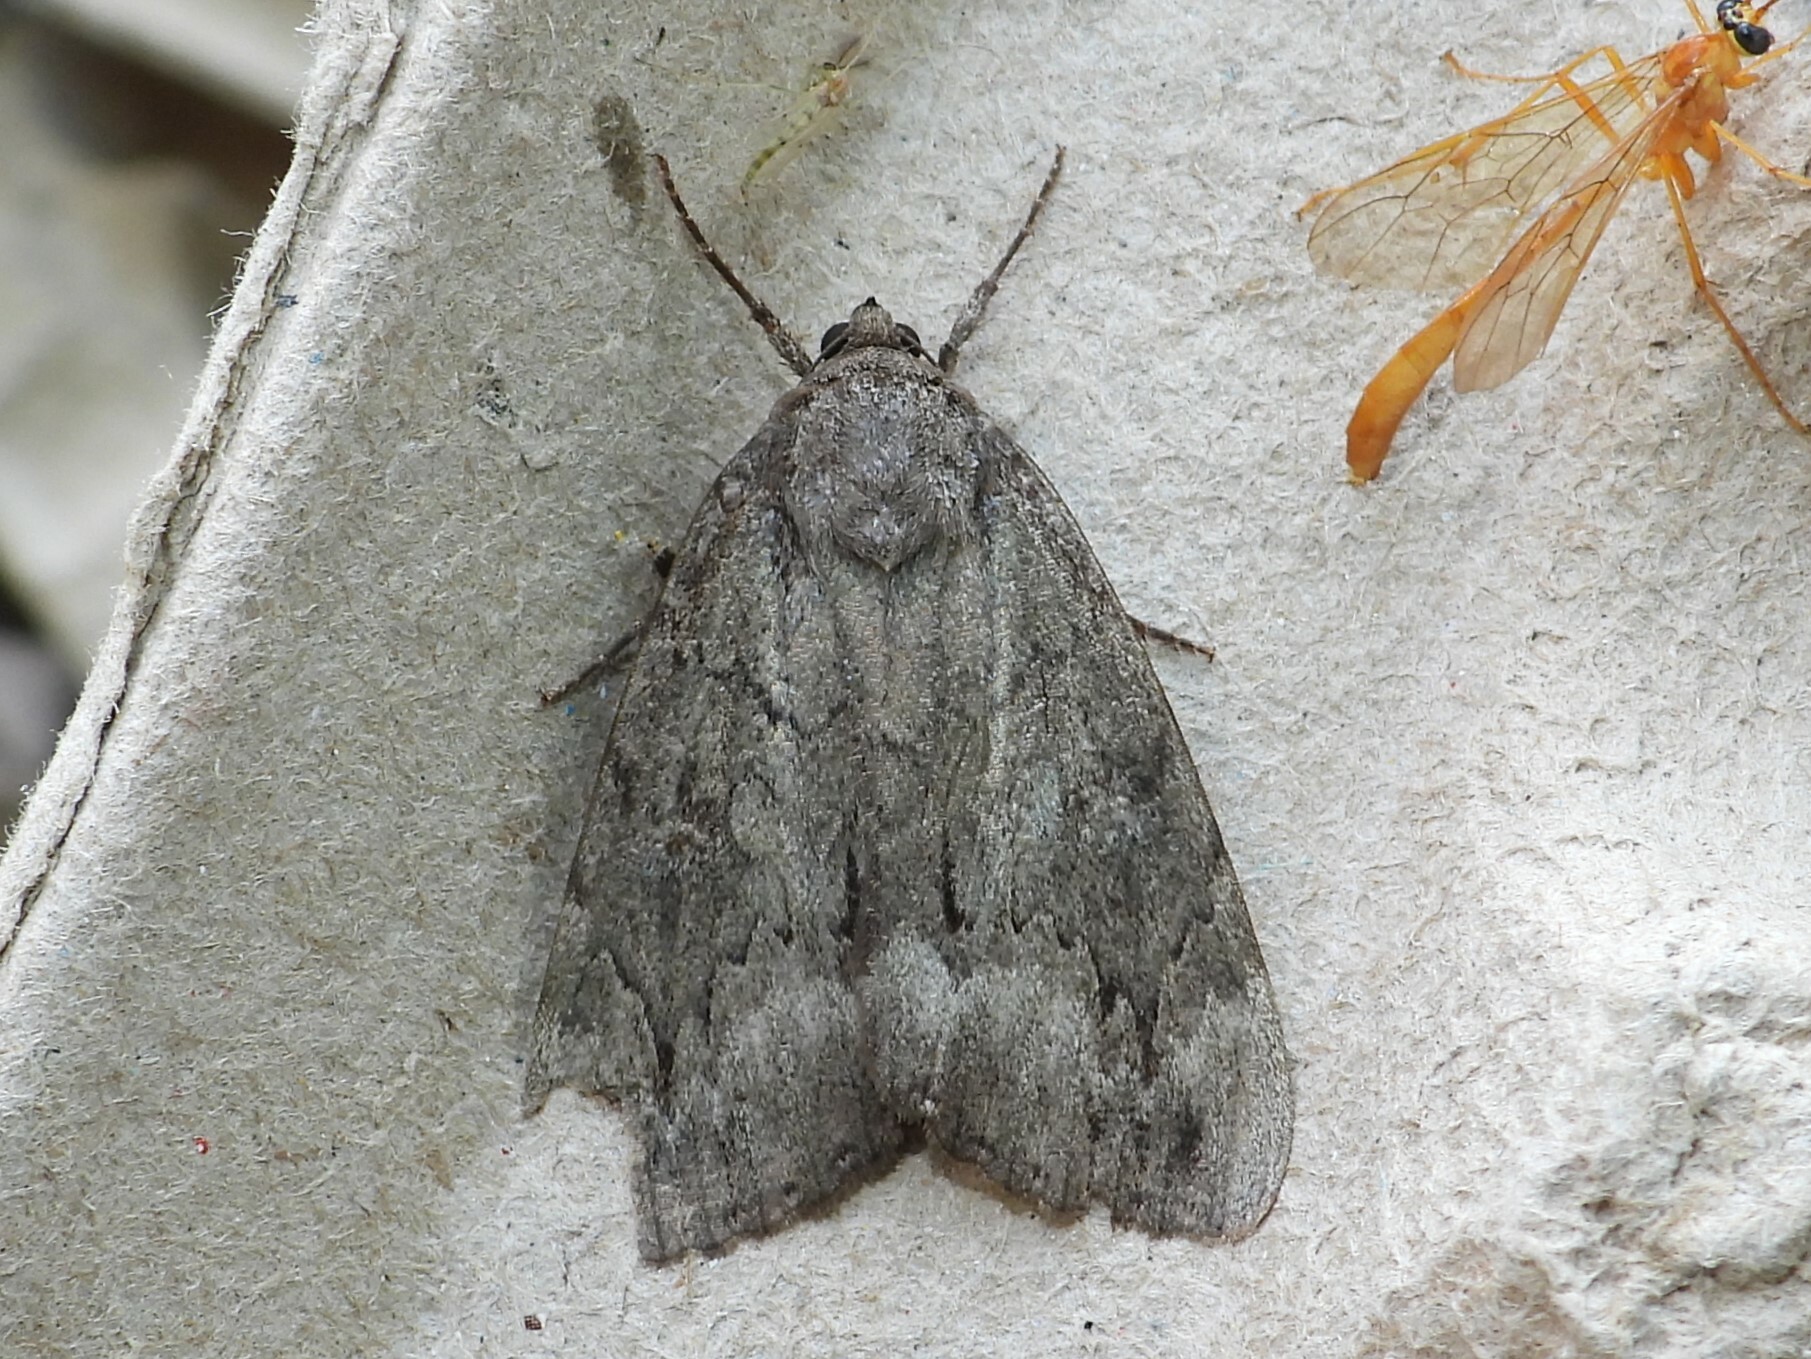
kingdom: Animalia
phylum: Arthropoda
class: Insecta
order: Lepidoptera
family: Erebidae
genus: Catocala
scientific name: Catocala obscura
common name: Obscure underwing moth
